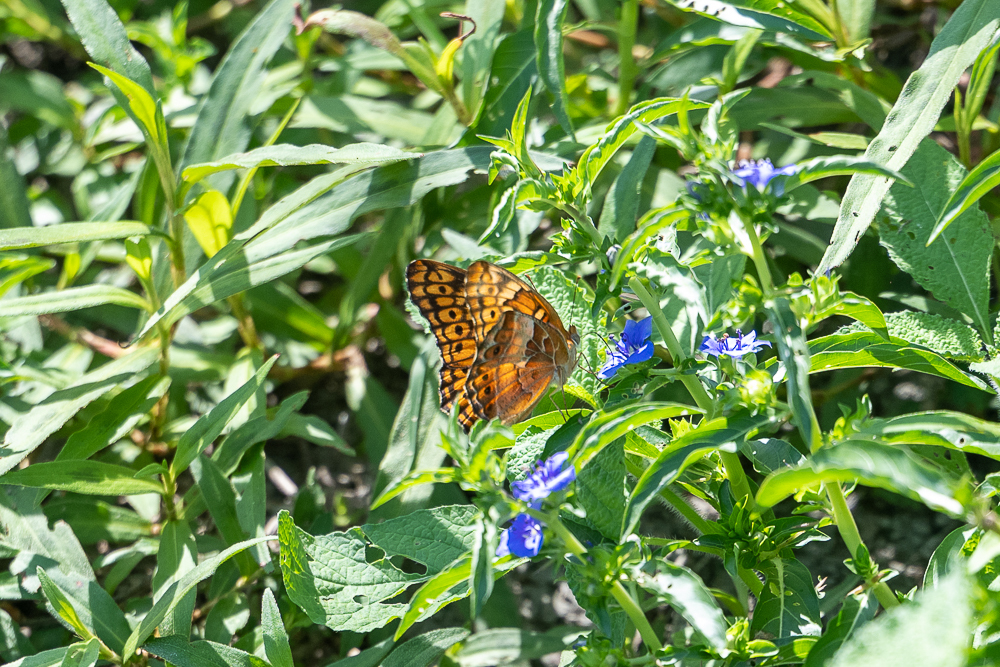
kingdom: Animalia
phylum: Arthropoda
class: Insecta
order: Lepidoptera
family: Nymphalidae
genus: Euptoieta
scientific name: Euptoieta claudia
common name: Variegated fritillary
